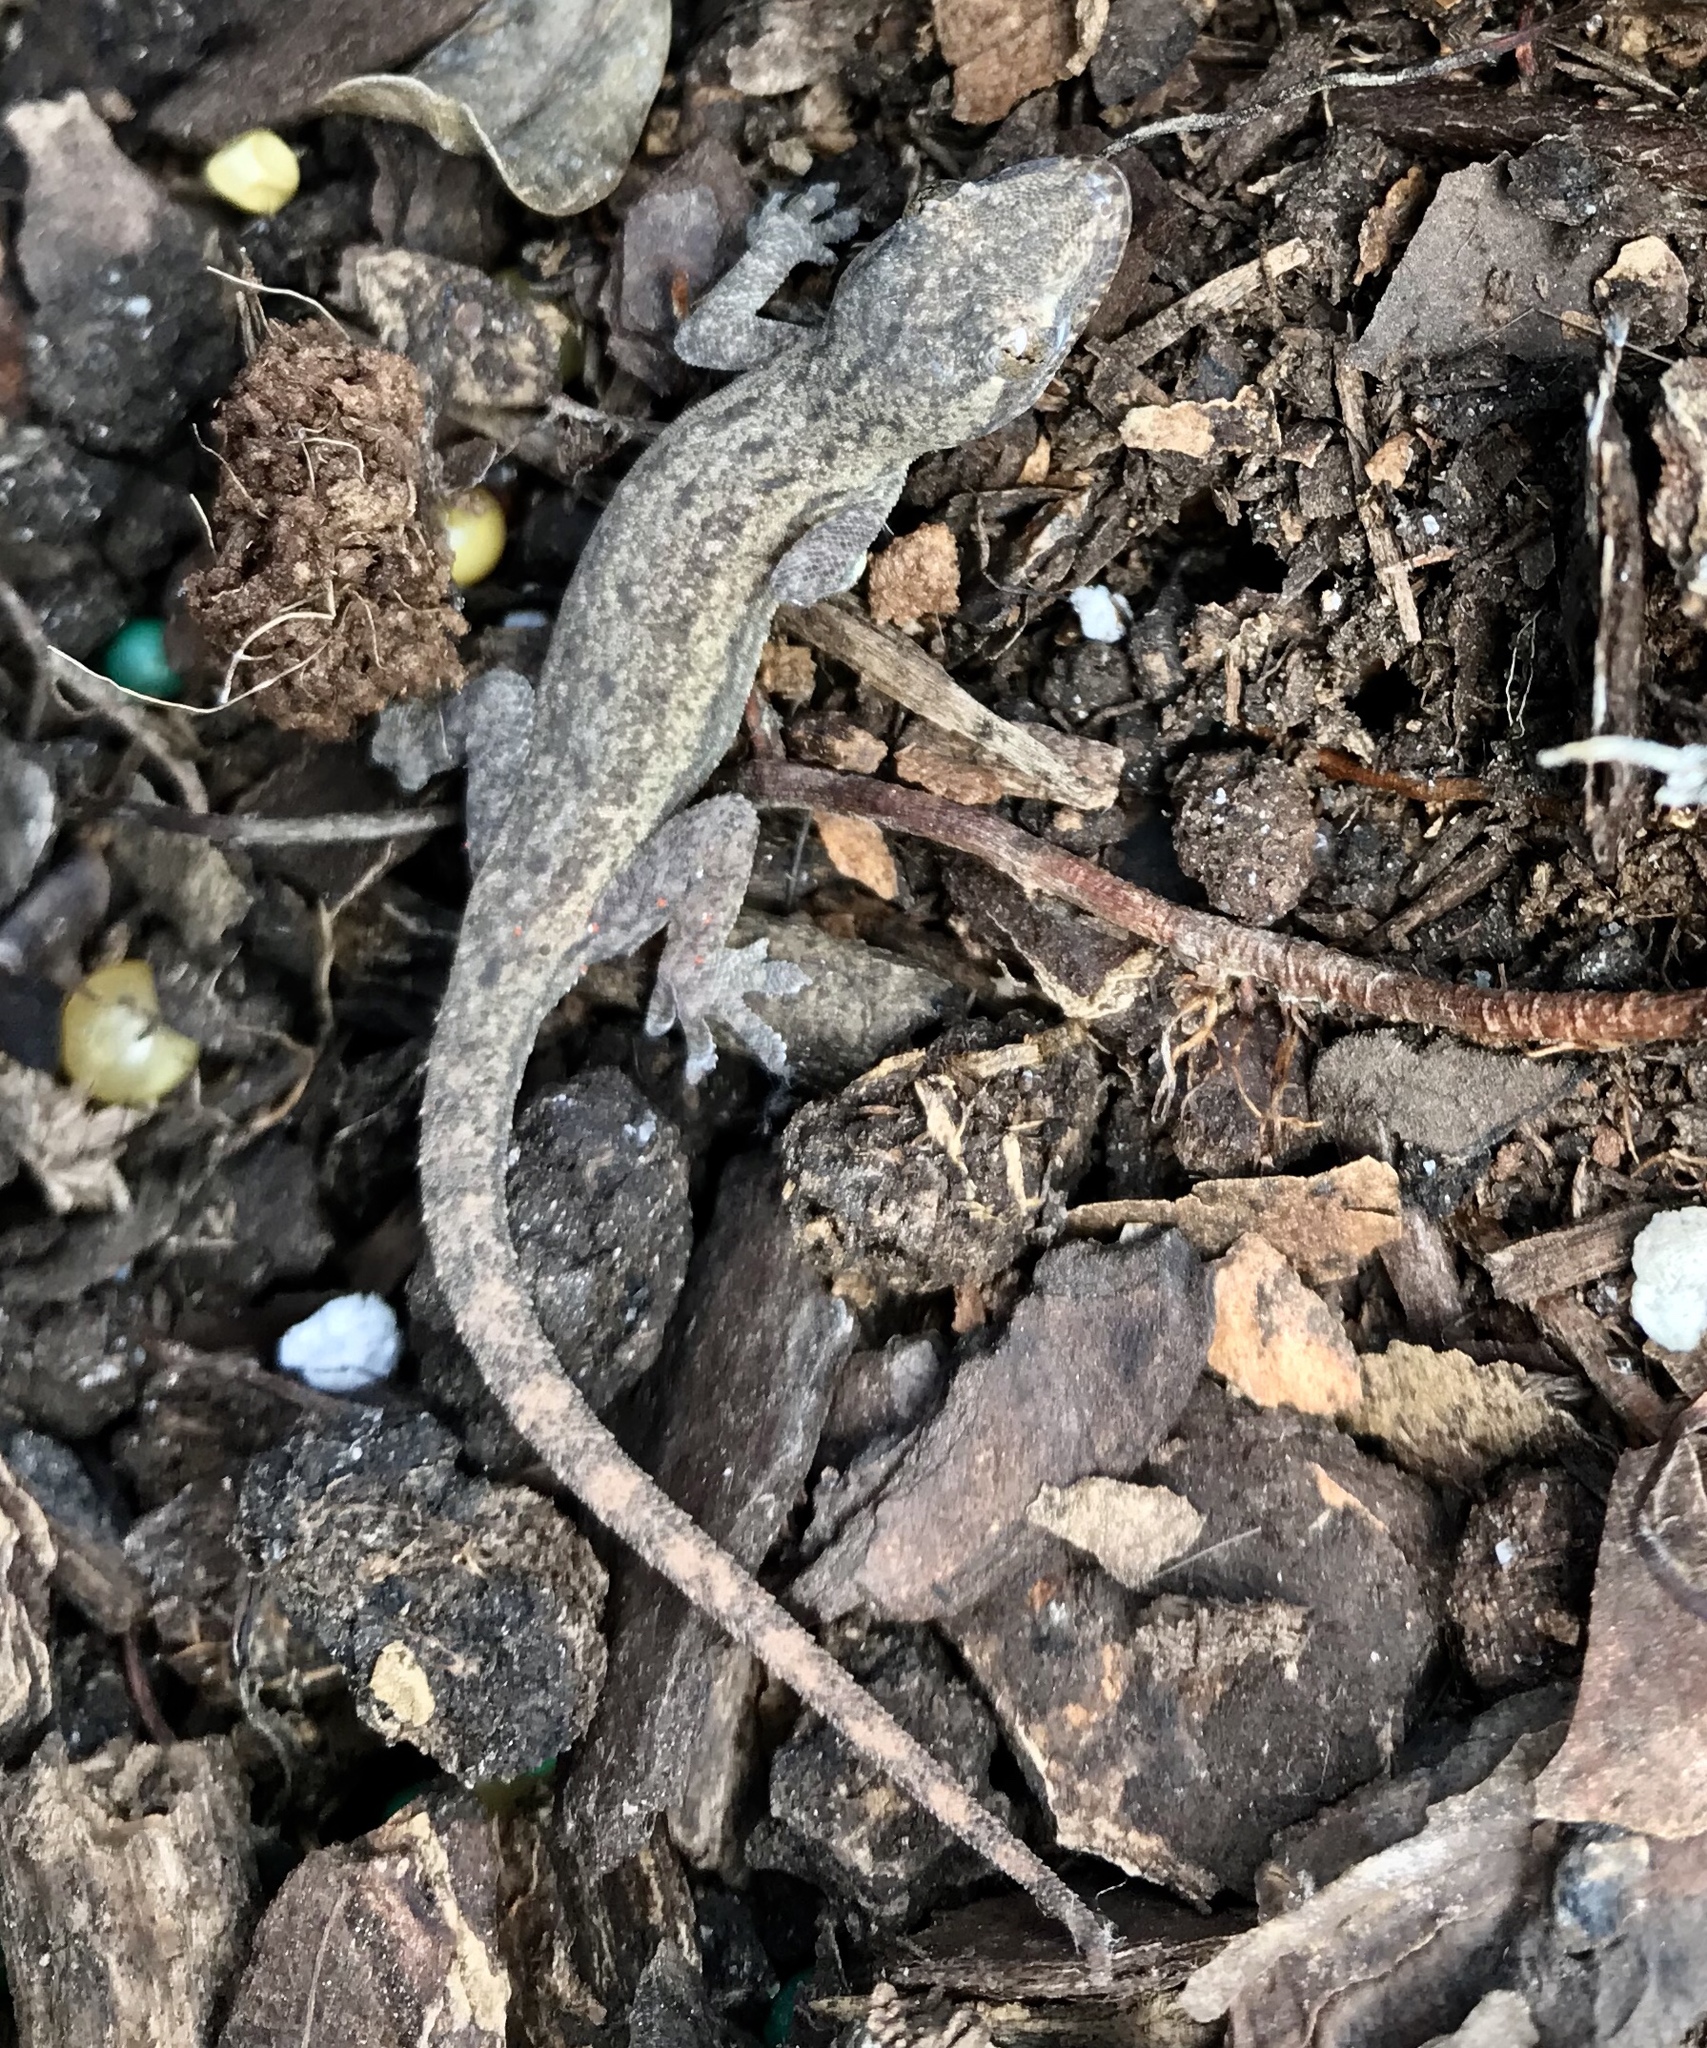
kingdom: Animalia
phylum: Chordata
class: Squamata
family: Gekkonidae
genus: Hemidactylus
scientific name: Hemidactylus frenatus
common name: Common house gecko
